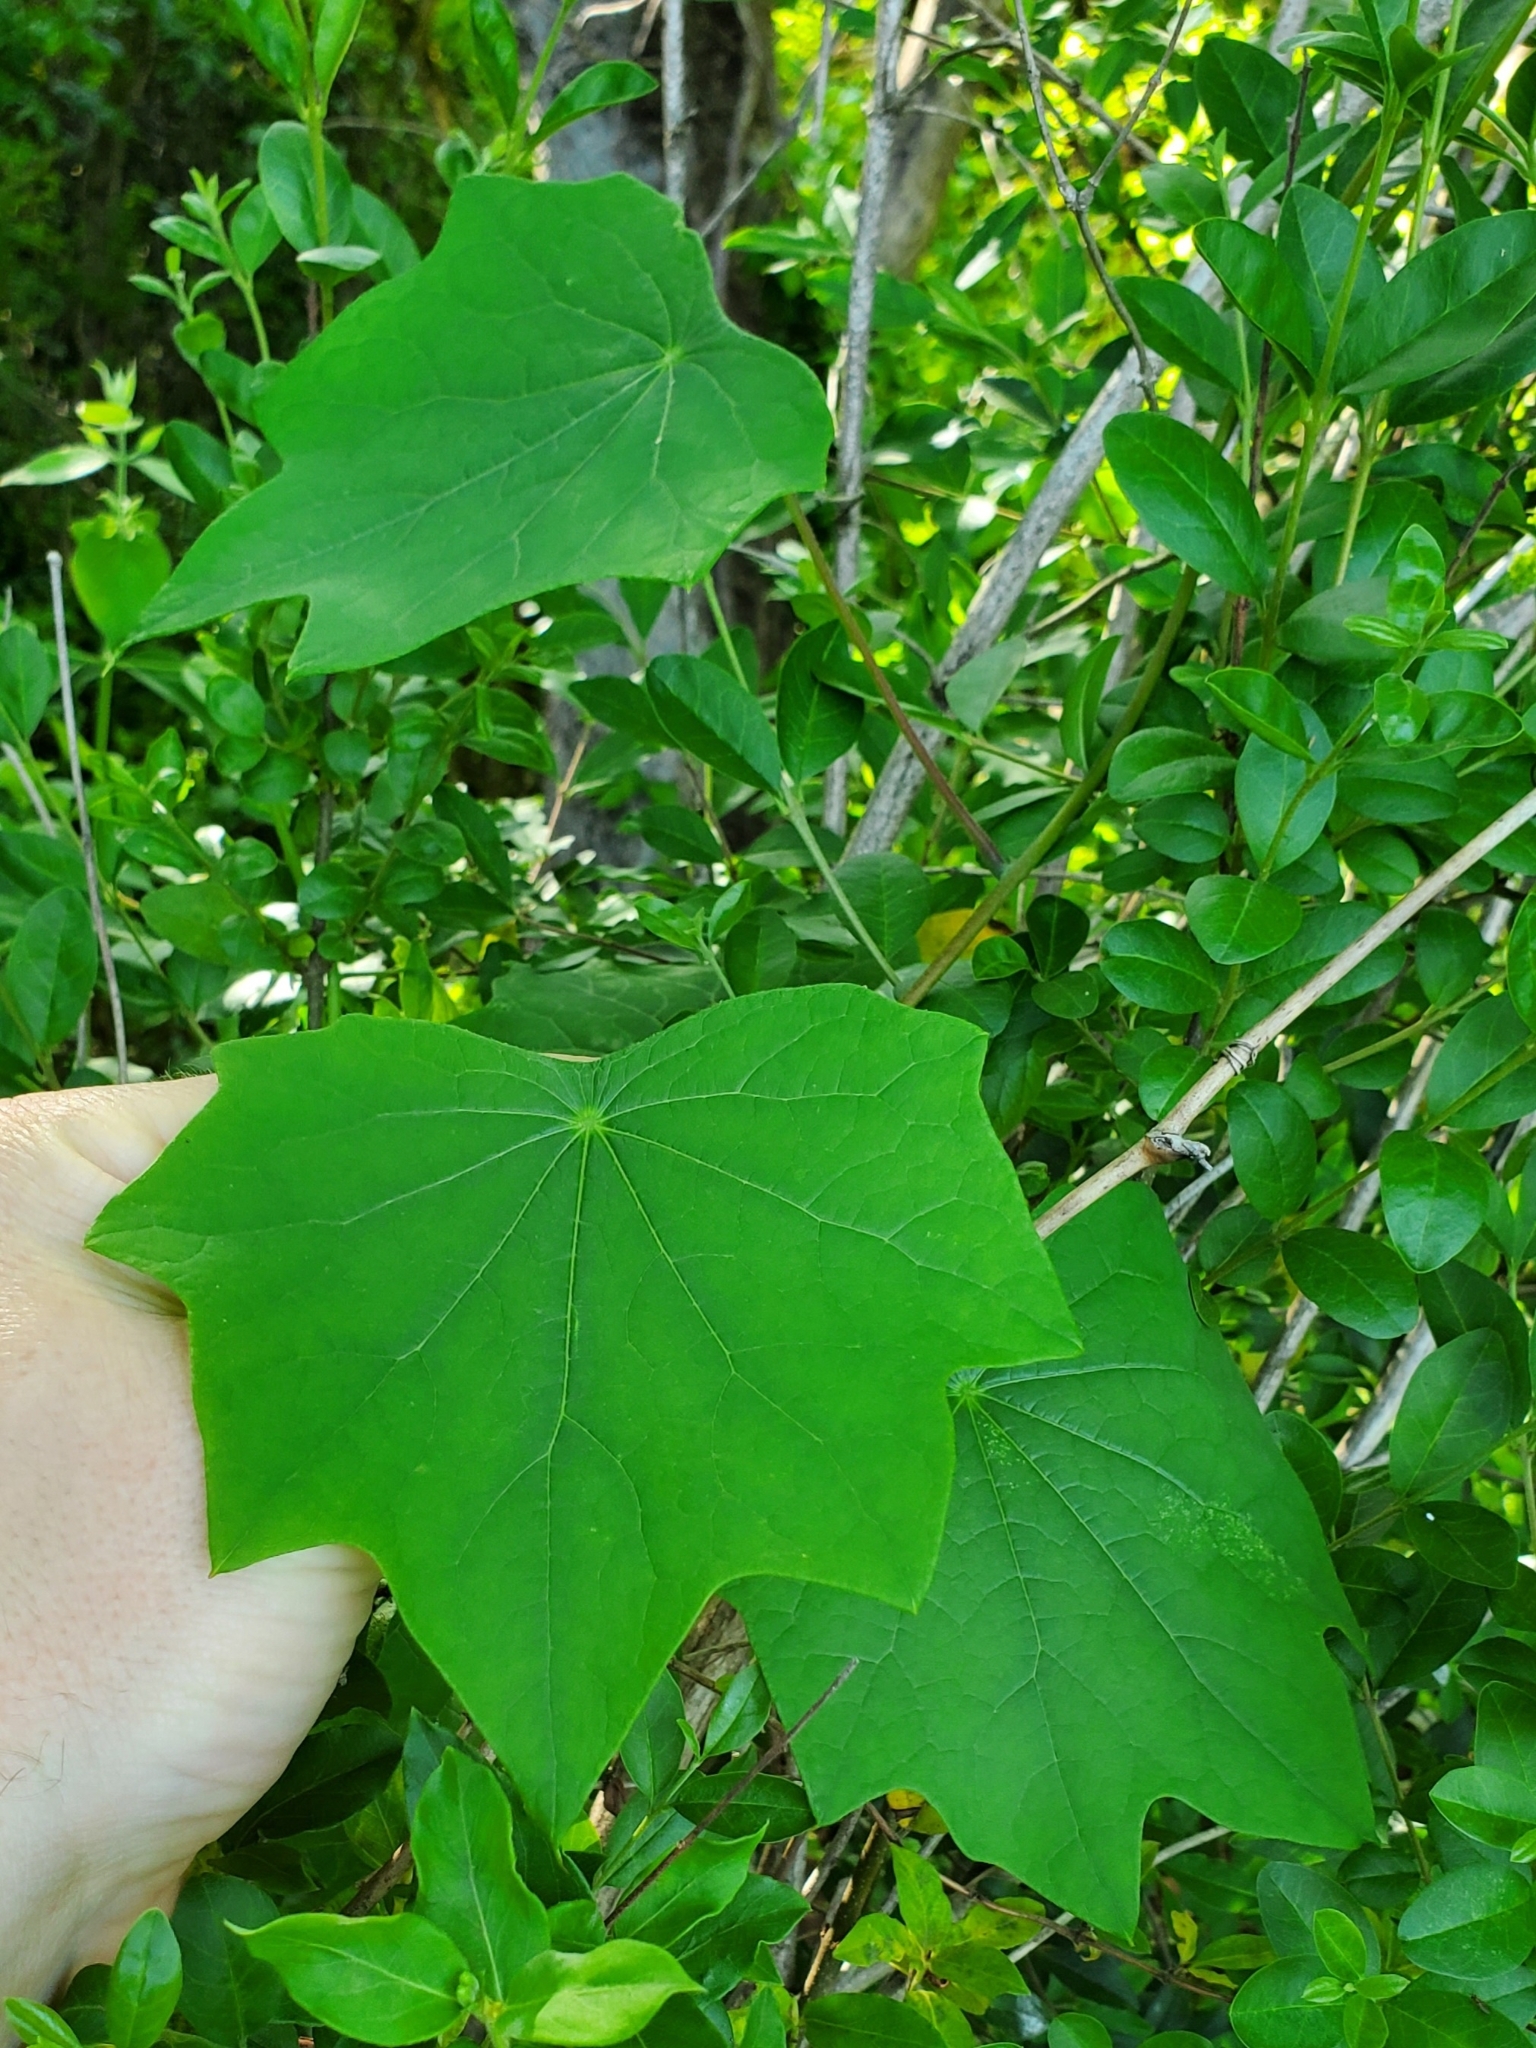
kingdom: Plantae
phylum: Tracheophyta
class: Magnoliopsida
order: Ranunculales
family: Menispermaceae
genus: Menispermum
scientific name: Menispermum canadense
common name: Moonseed
